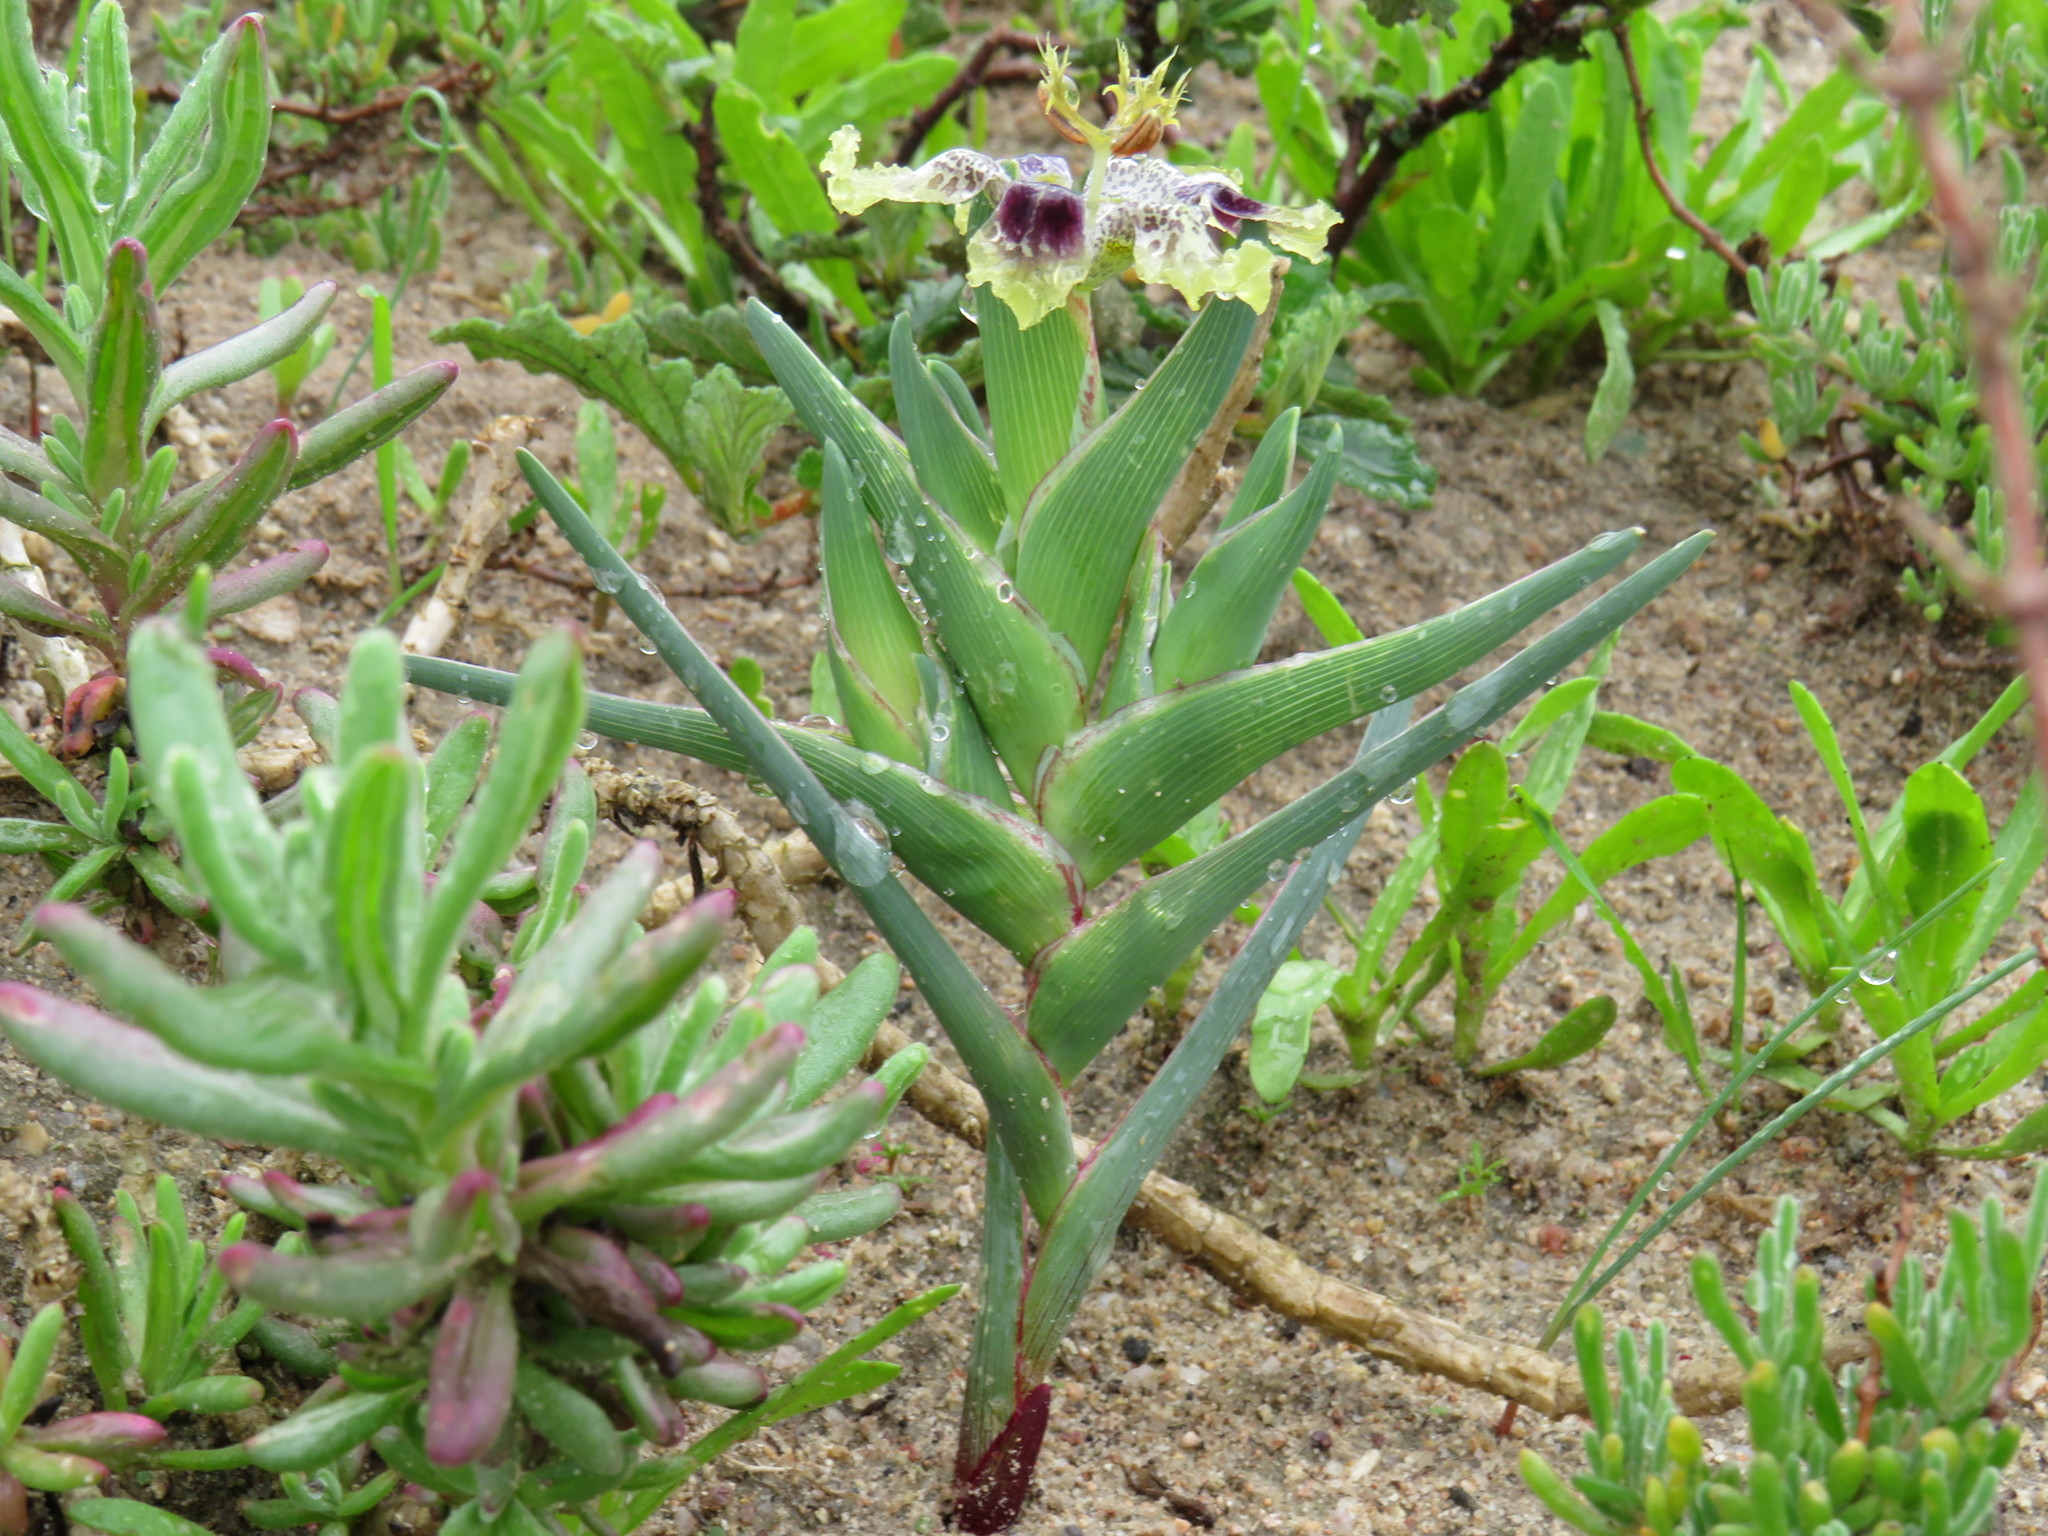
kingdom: Plantae
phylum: Tracheophyta
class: Liliopsida
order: Asparagales
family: Iridaceae
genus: Ferraria
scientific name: Ferraria densepunctulata
